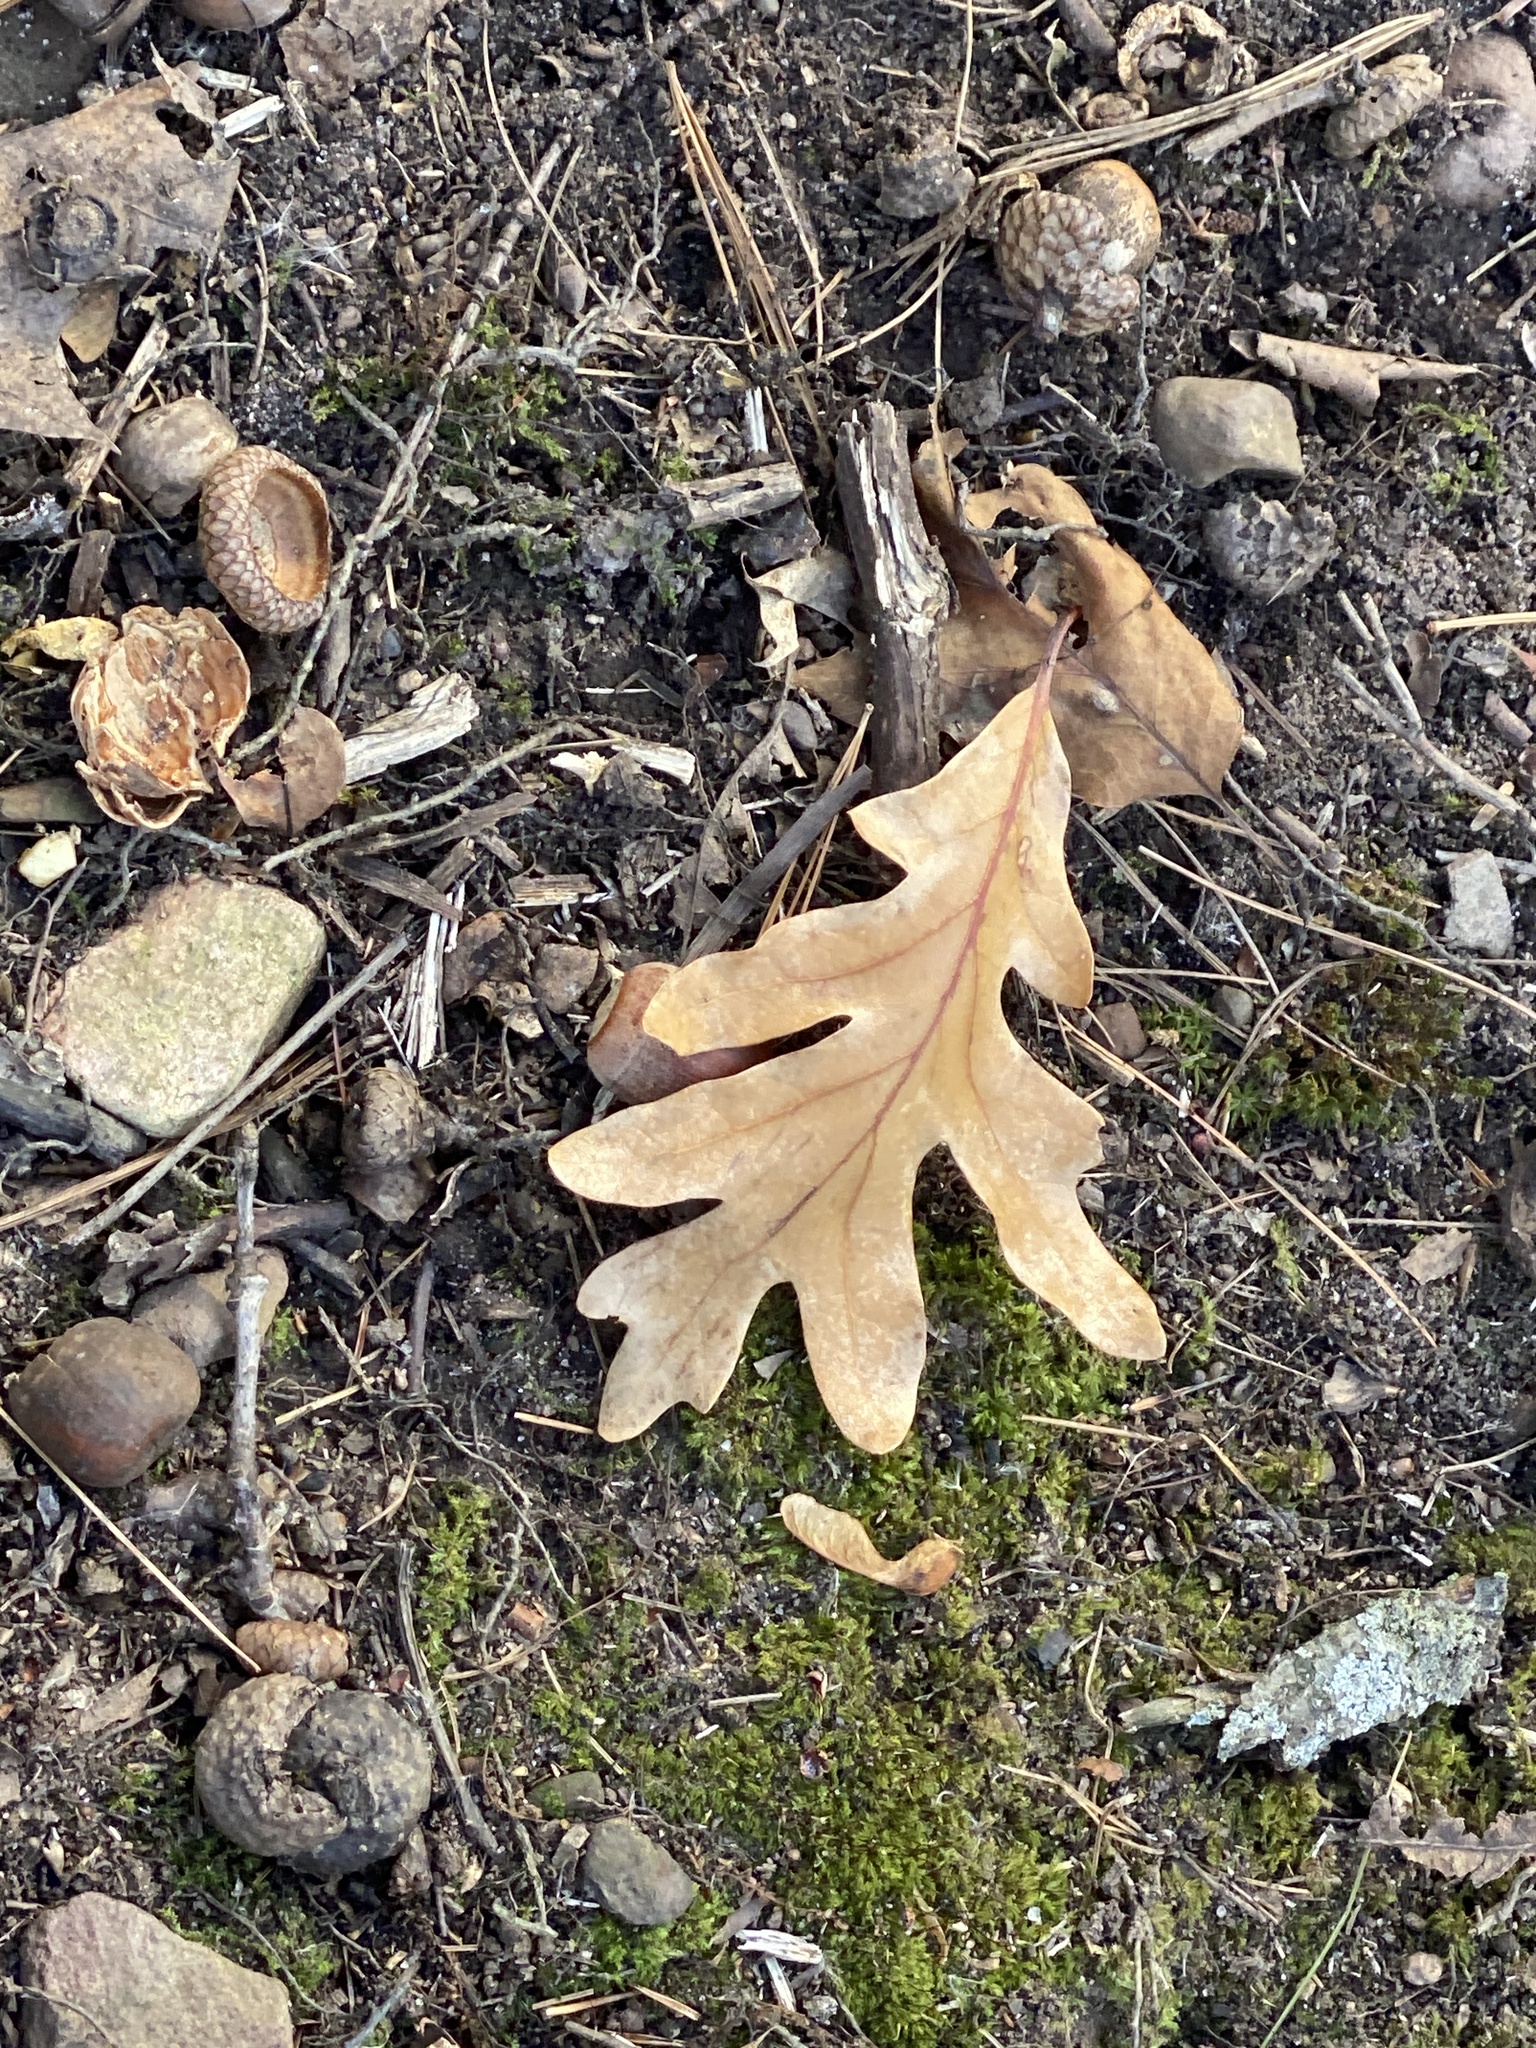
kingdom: Plantae
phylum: Tracheophyta
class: Magnoliopsida
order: Fagales
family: Fagaceae
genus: Quercus
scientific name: Quercus alba
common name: White oak
